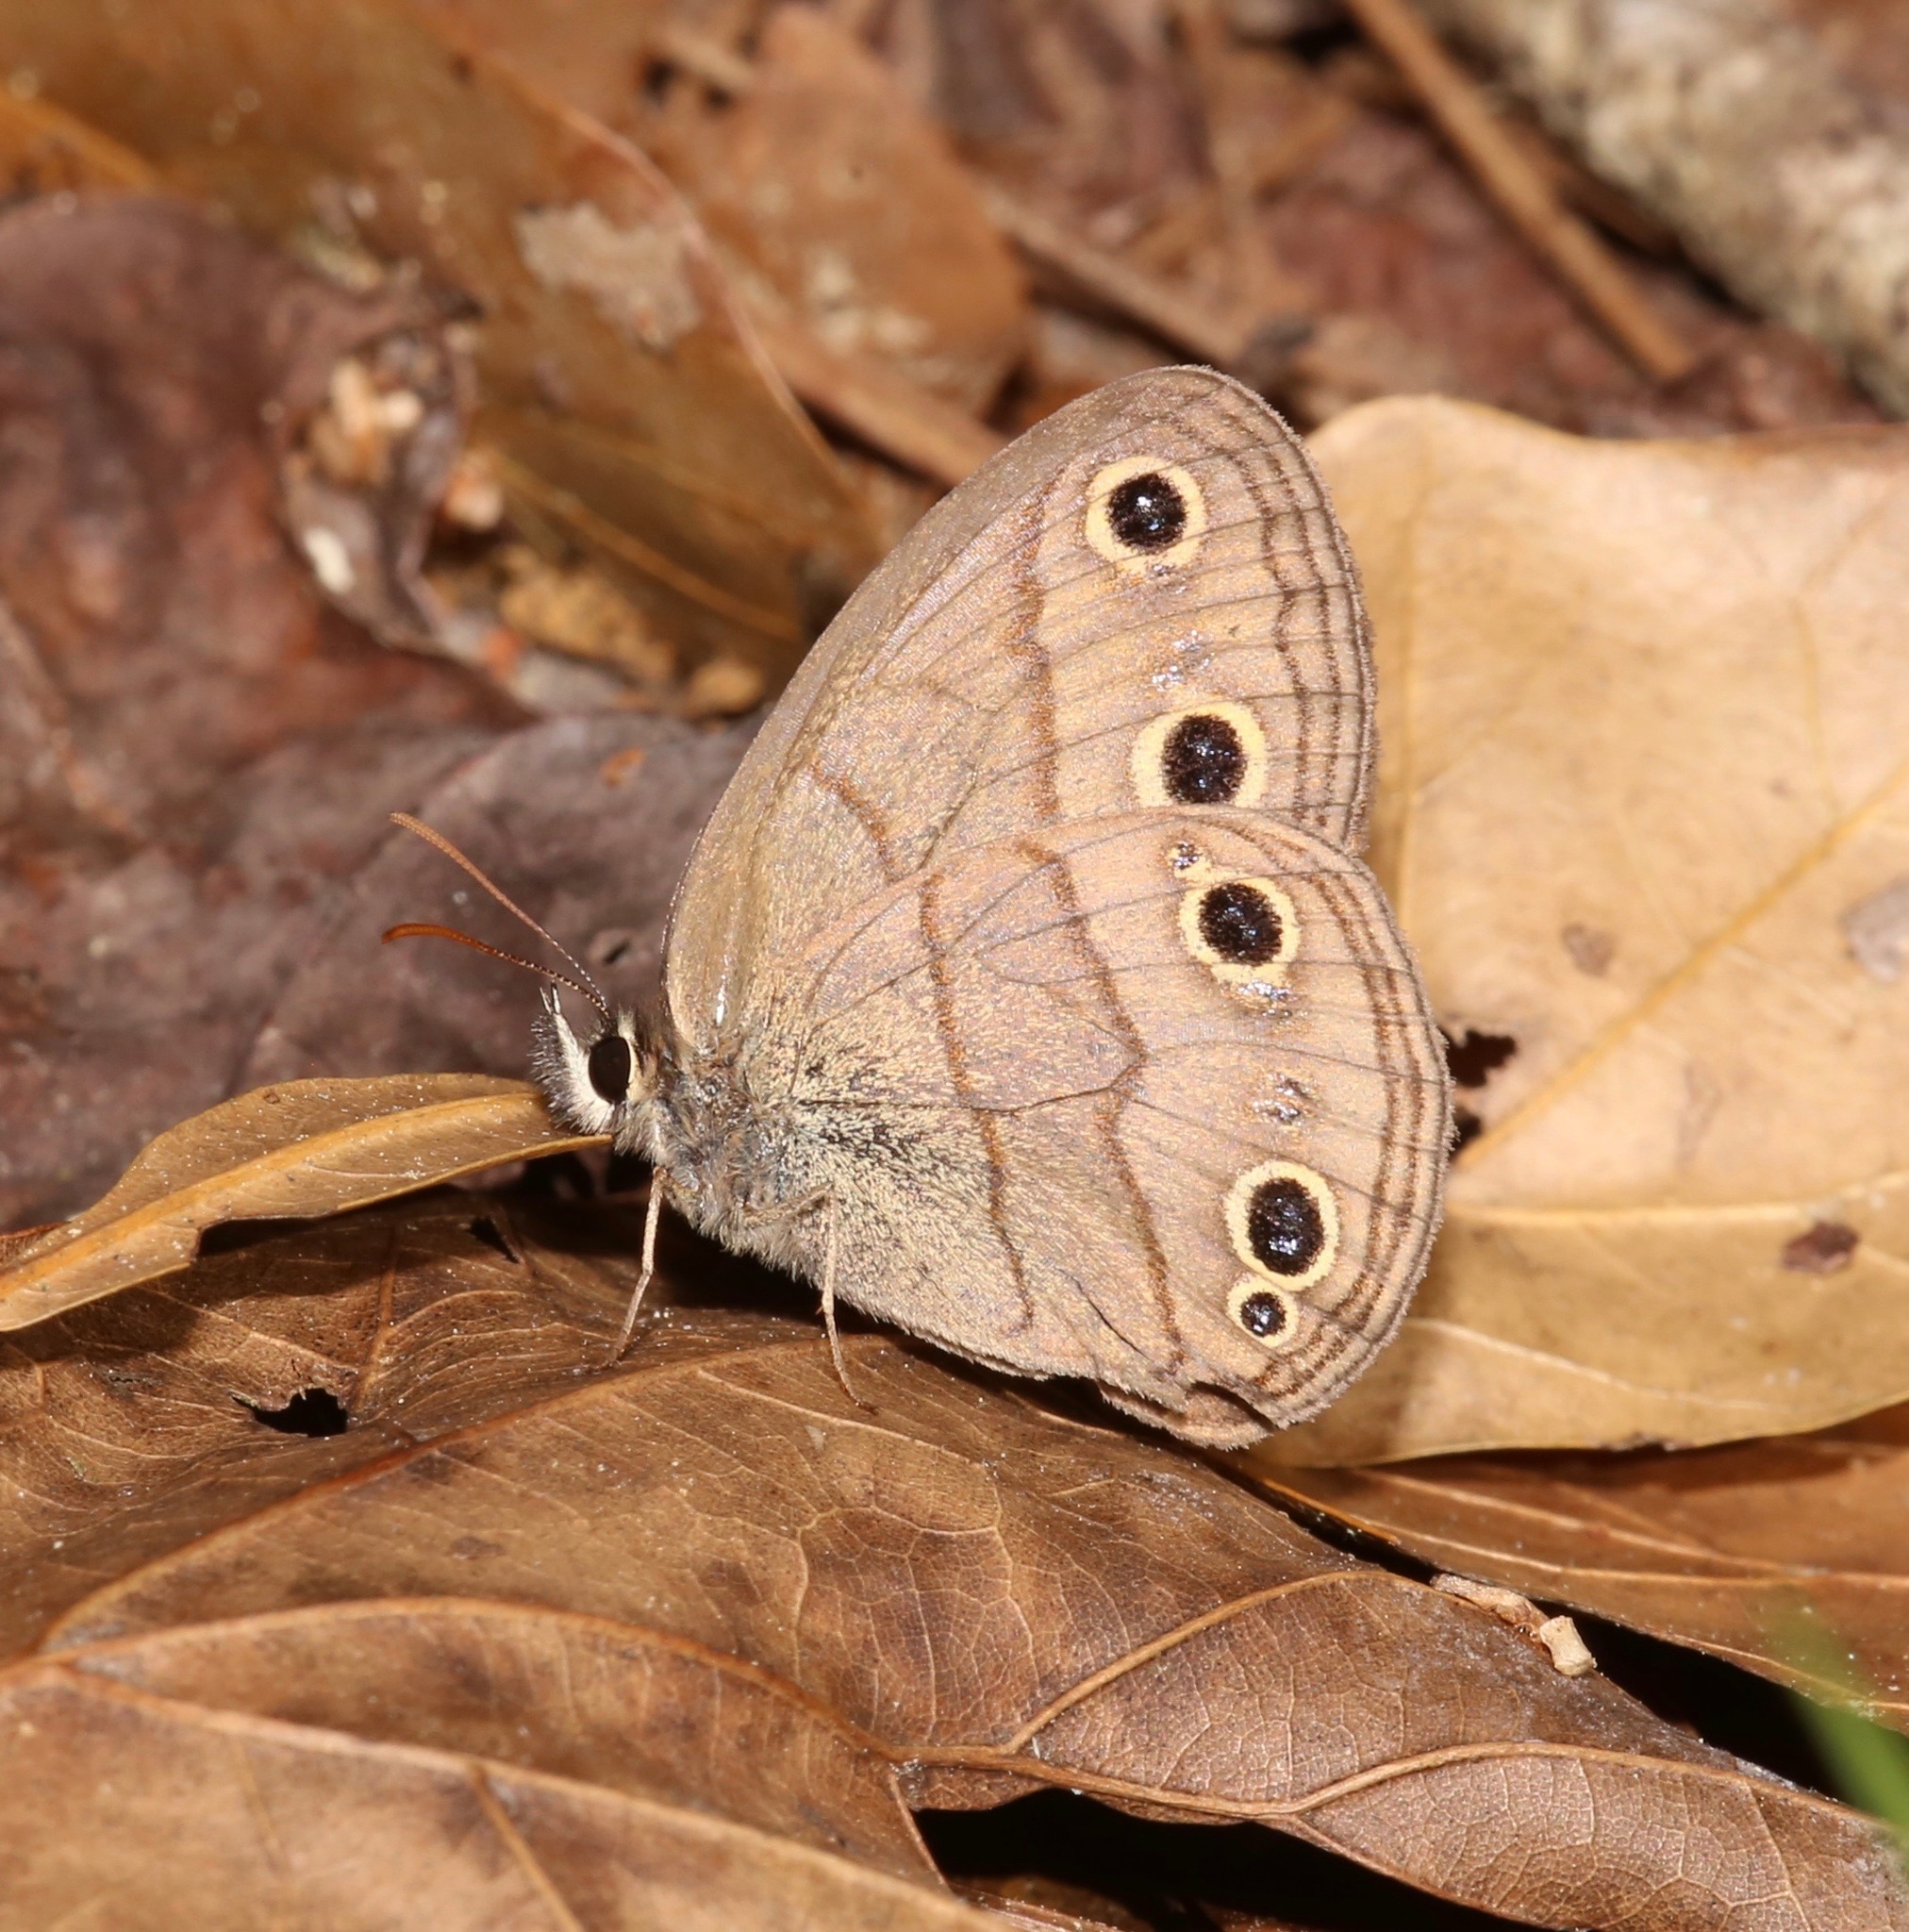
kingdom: Animalia
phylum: Arthropoda
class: Insecta
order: Lepidoptera
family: Nymphalidae
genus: Euptychia
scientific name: Euptychia cymela
